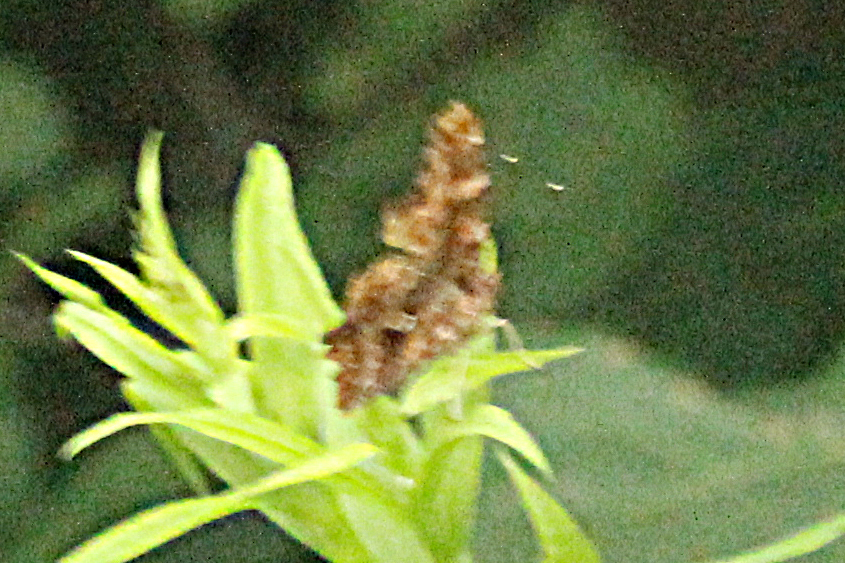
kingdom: Animalia
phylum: Arthropoda
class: Insecta
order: Lepidoptera
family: Nymphalidae
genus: Polygonia
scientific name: Polygonia comma
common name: Eastern comma
